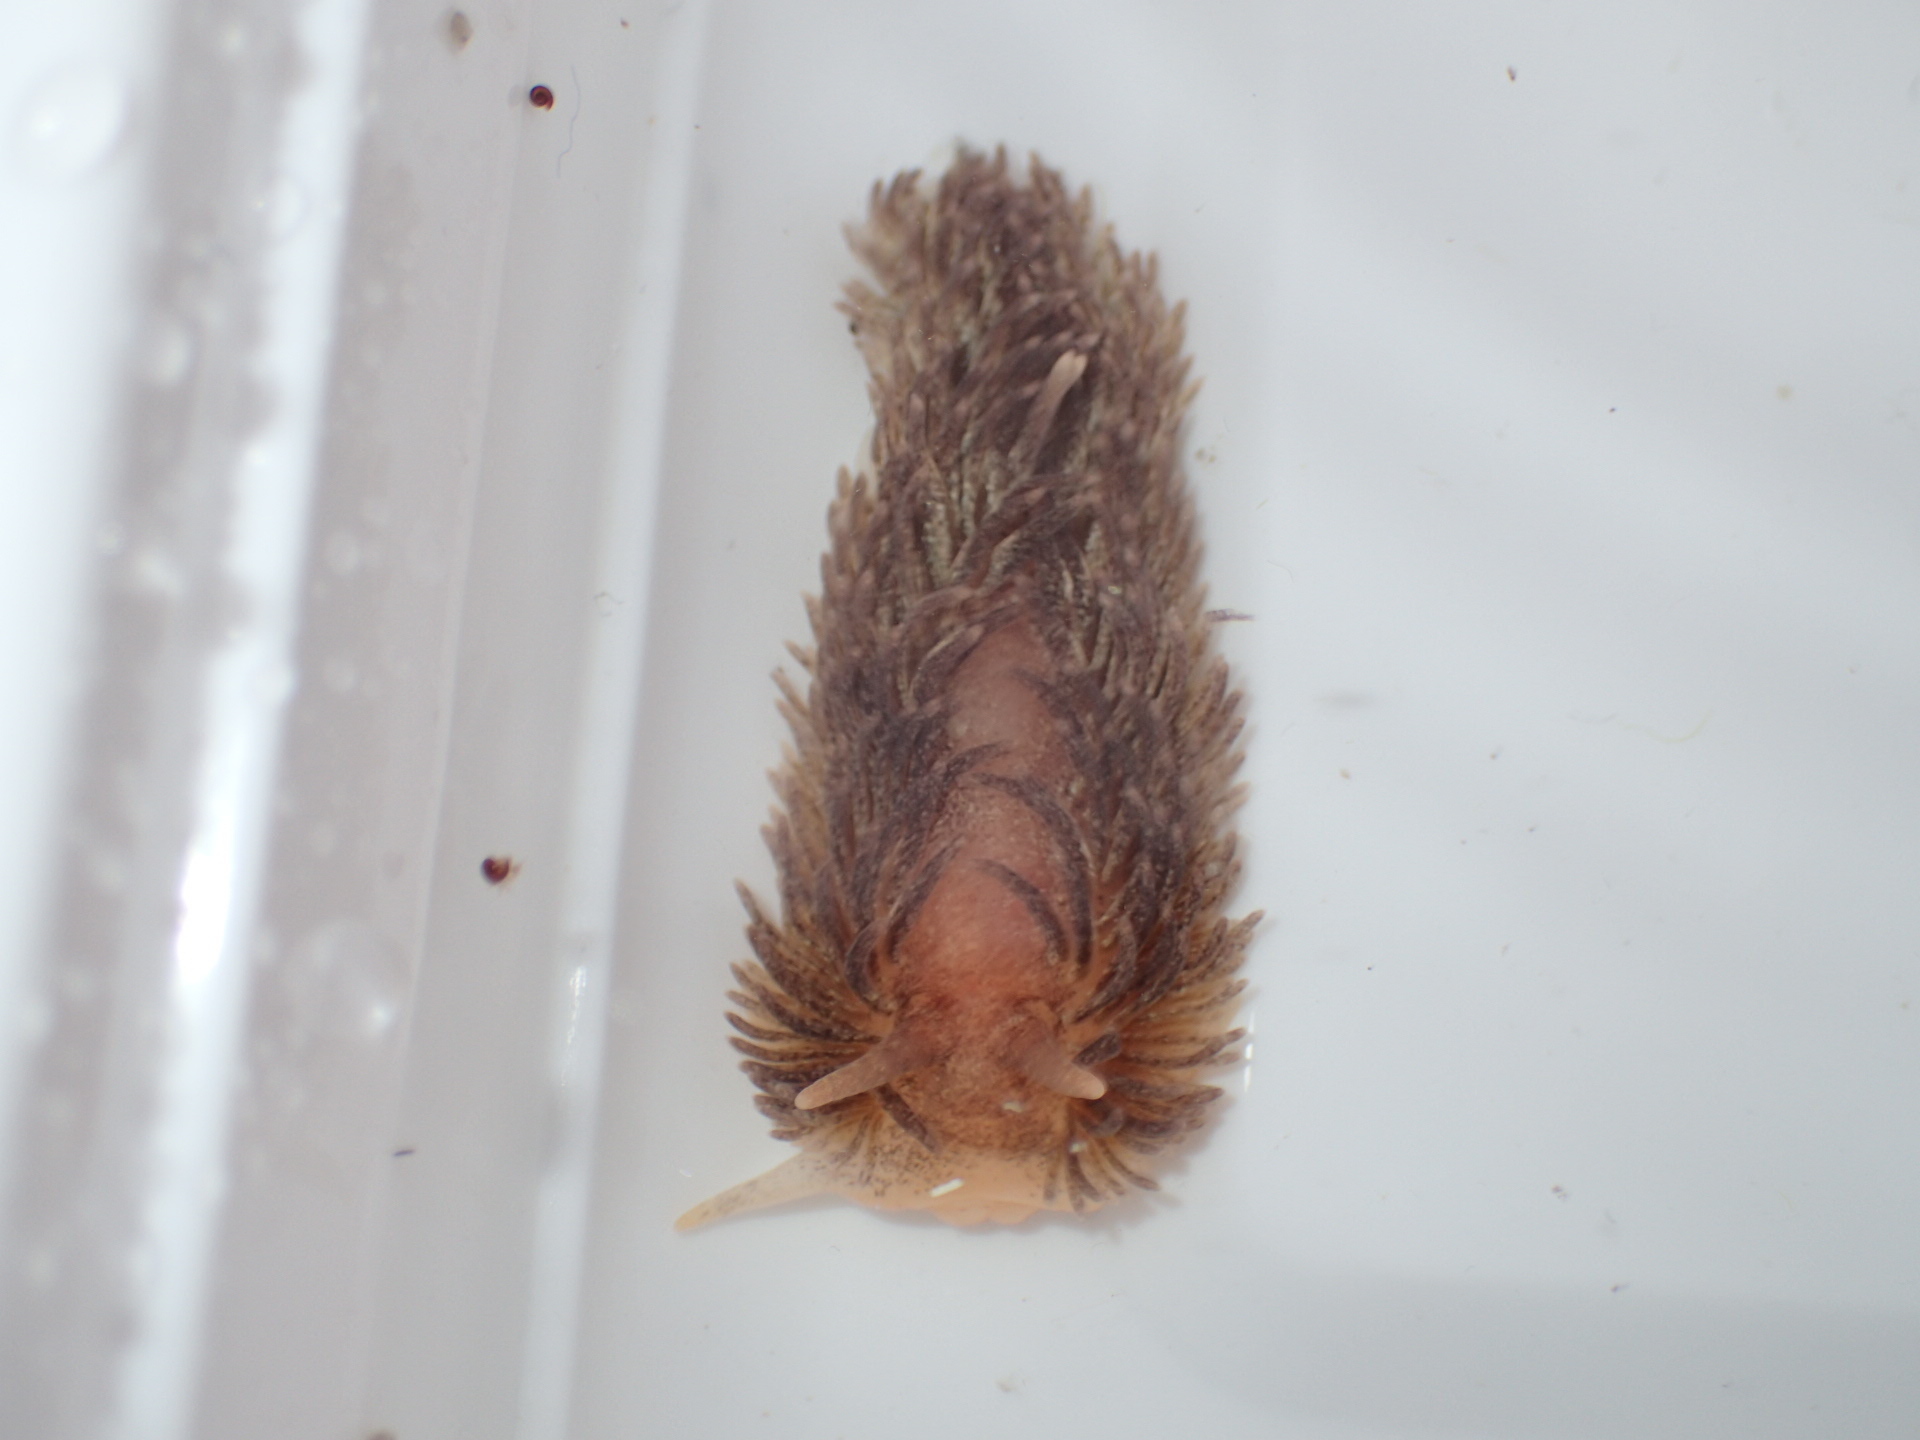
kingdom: Animalia
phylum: Mollusca
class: Gastropoda
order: Nudibranchia
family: Aeolidiidae
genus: Aeolidia
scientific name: Aeolidia papillosa
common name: Common grey sea slug
